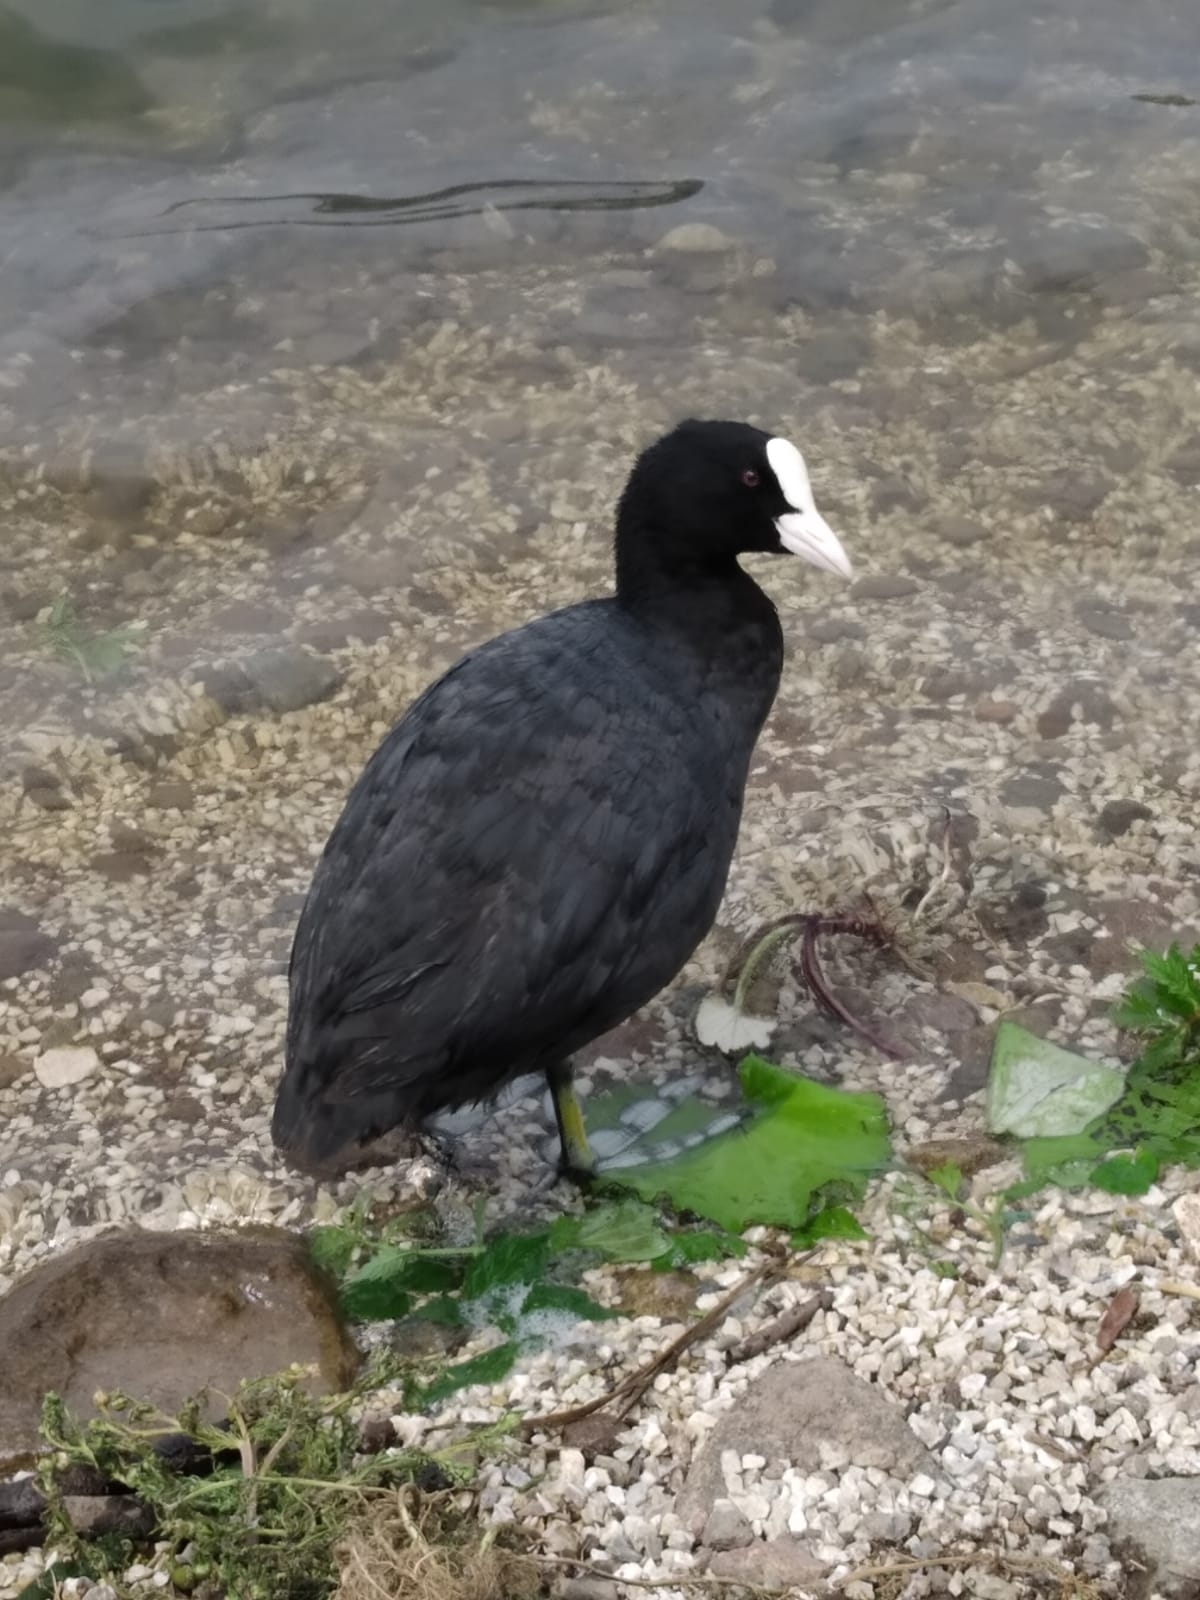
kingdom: Animalia
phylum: Chordata
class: Aves
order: Gruiformes
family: Rallidae
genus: Fulica
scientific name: Fulica atra
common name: Eurasian coot
